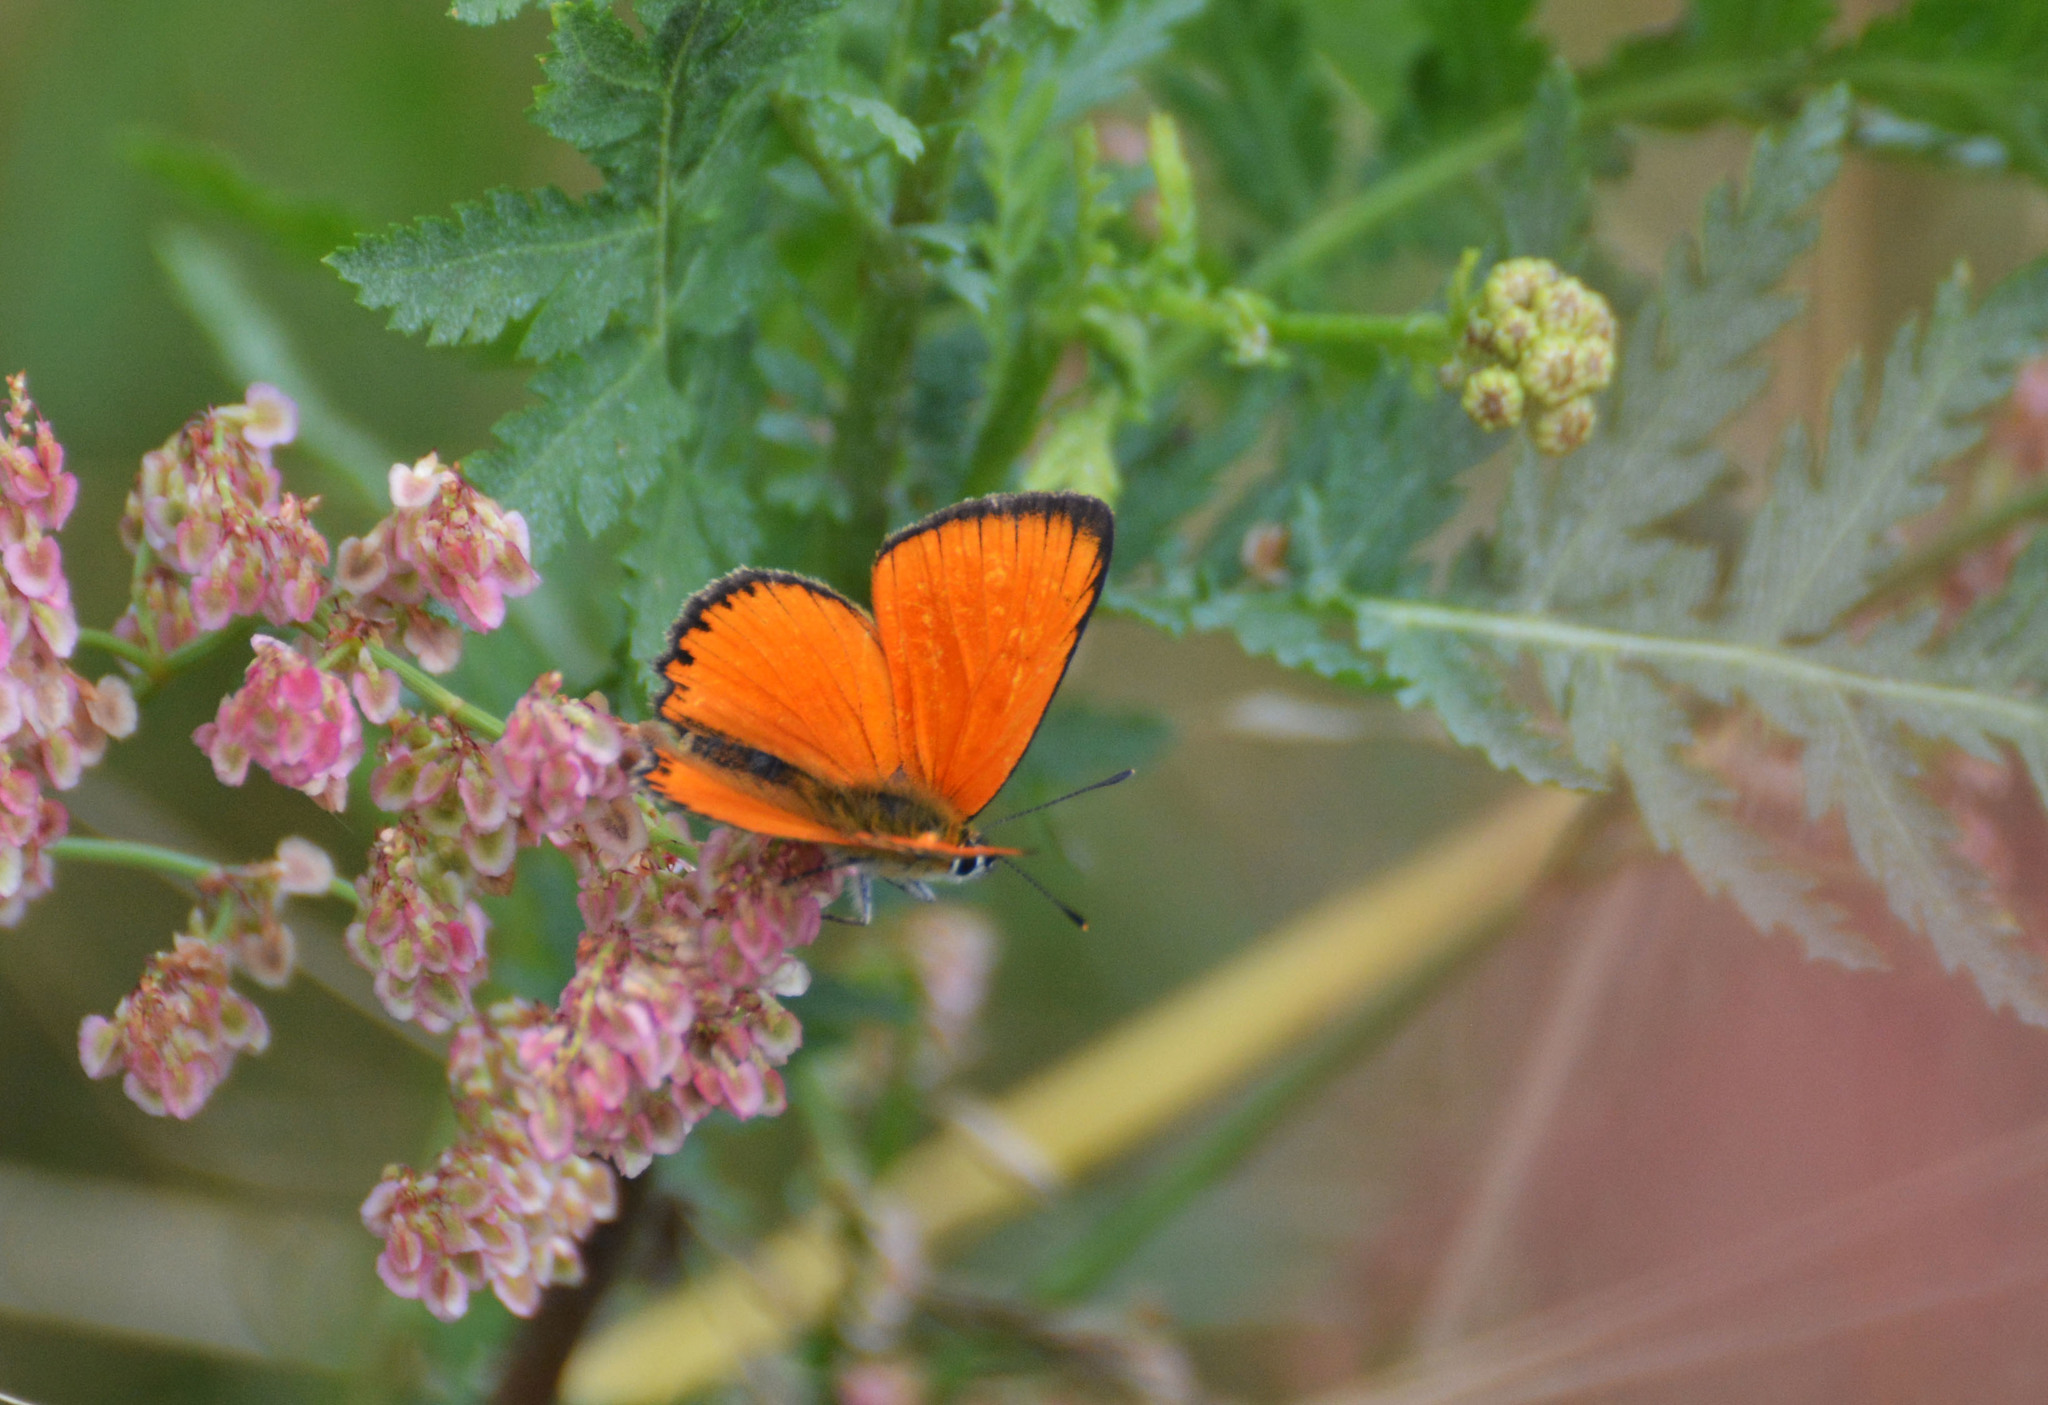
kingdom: Animalia
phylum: Arthropoda
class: Insecta
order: Lepidoptera
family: Lycaenidae
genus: Lycaena
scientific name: Lycaena virgaureae
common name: Scarce copper
